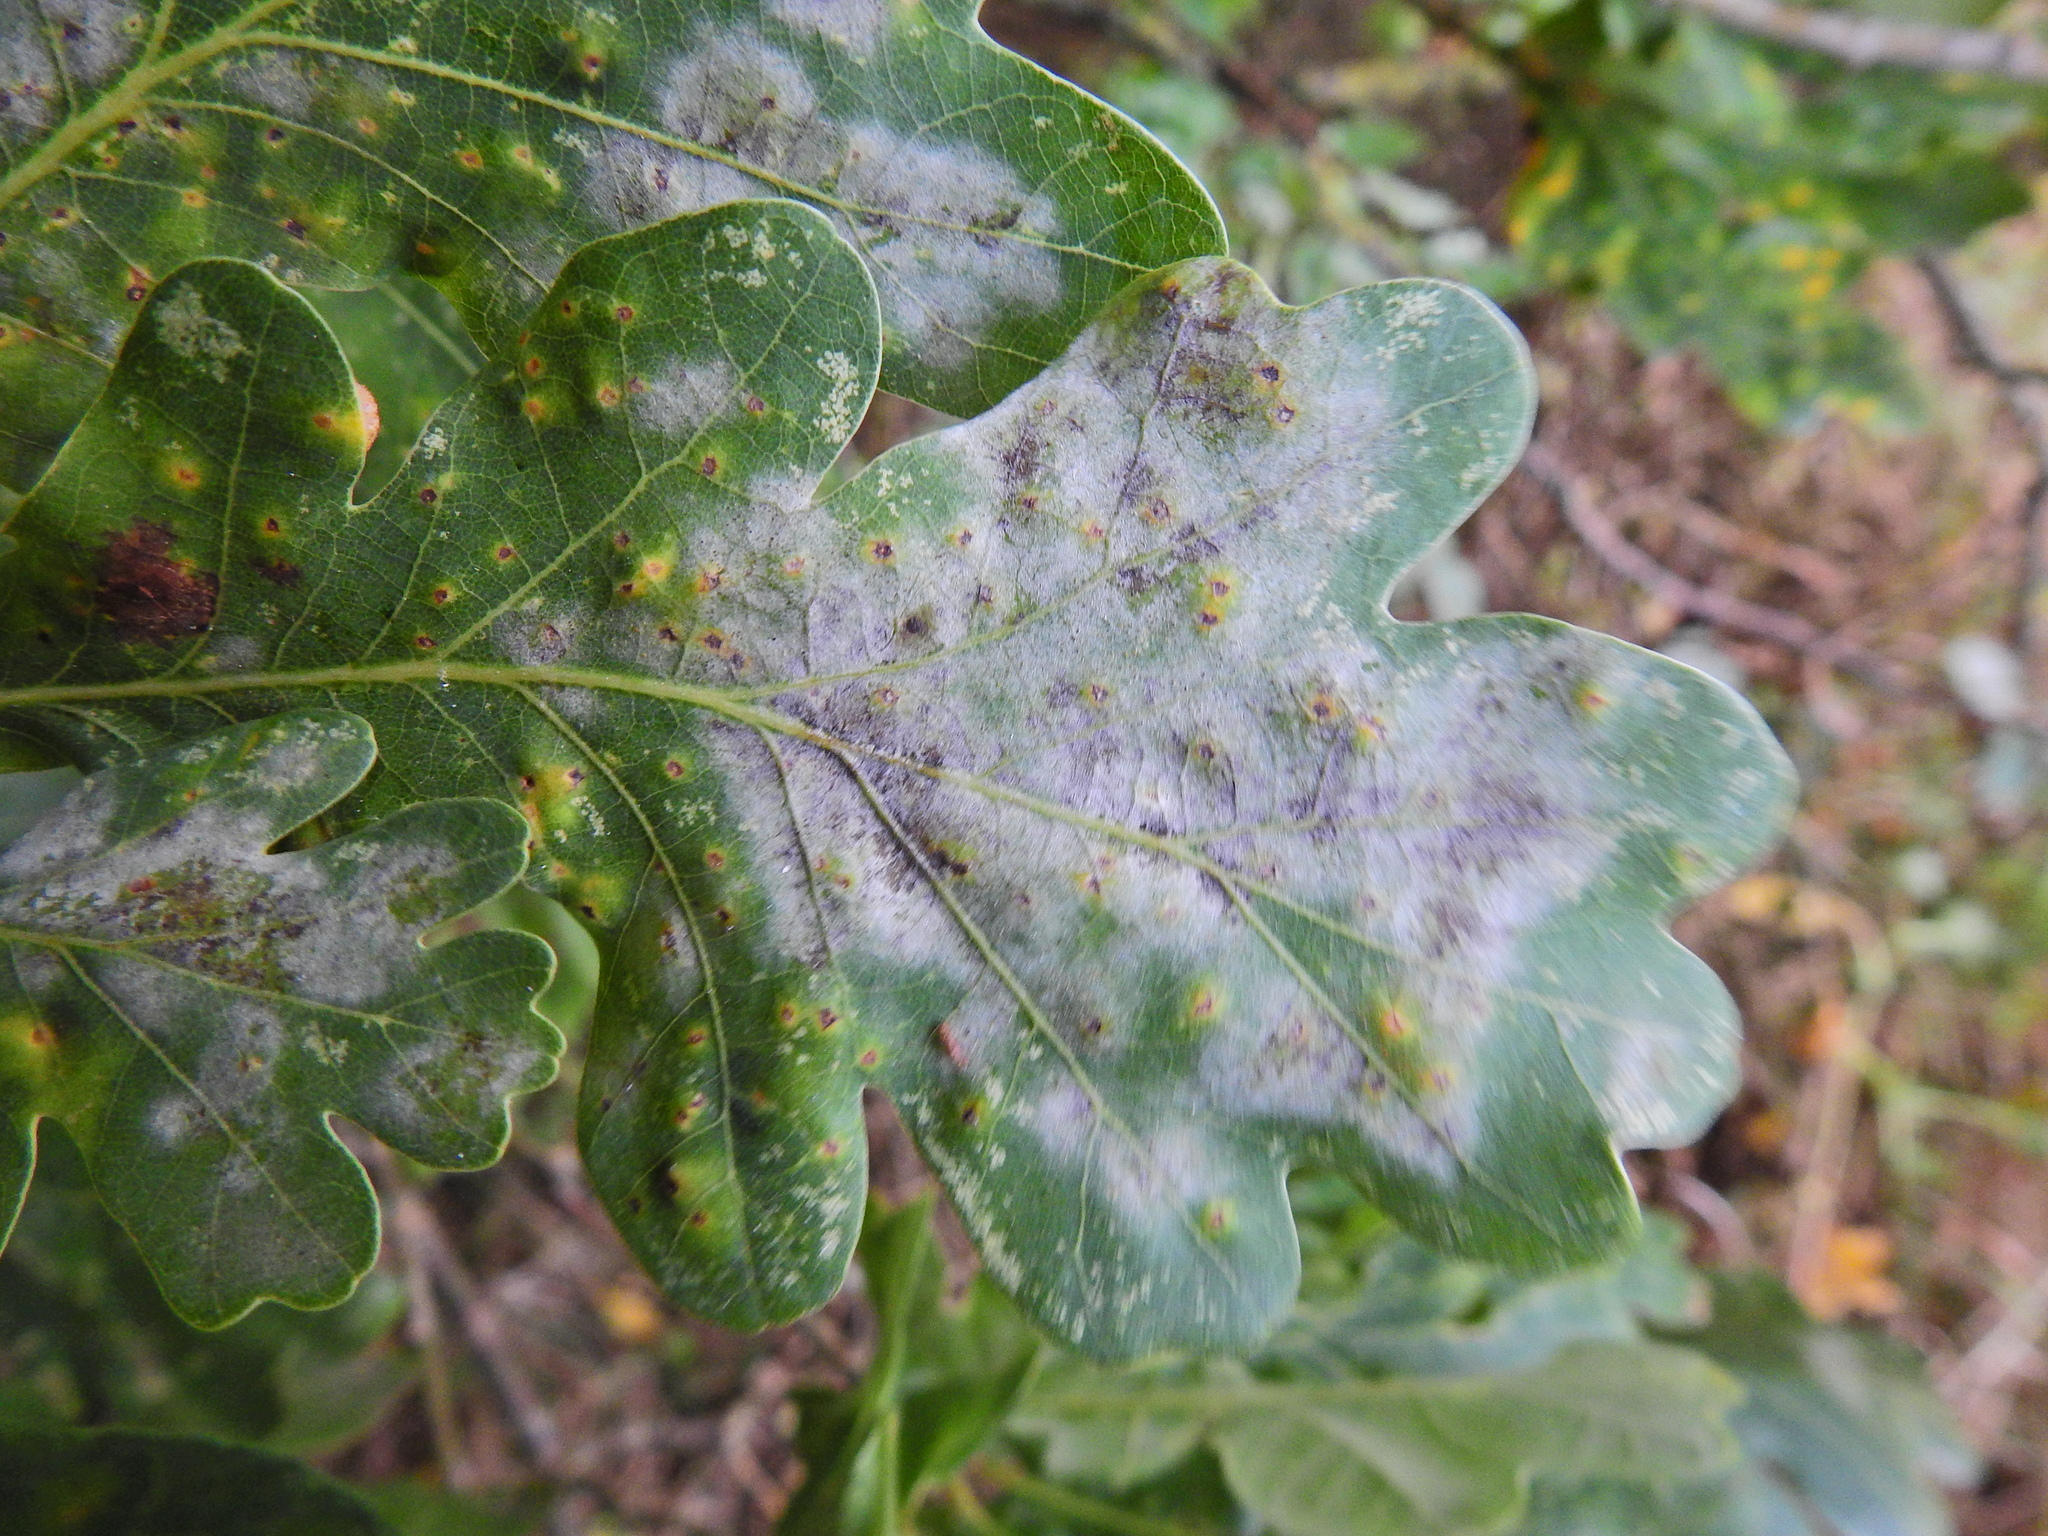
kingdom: Fungi
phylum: Ascomycota
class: Leotiomycetes
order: Helotiales
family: Erysiphaceae
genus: Erysiphe
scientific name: Erysiphe alphitoides
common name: Oak mildew
